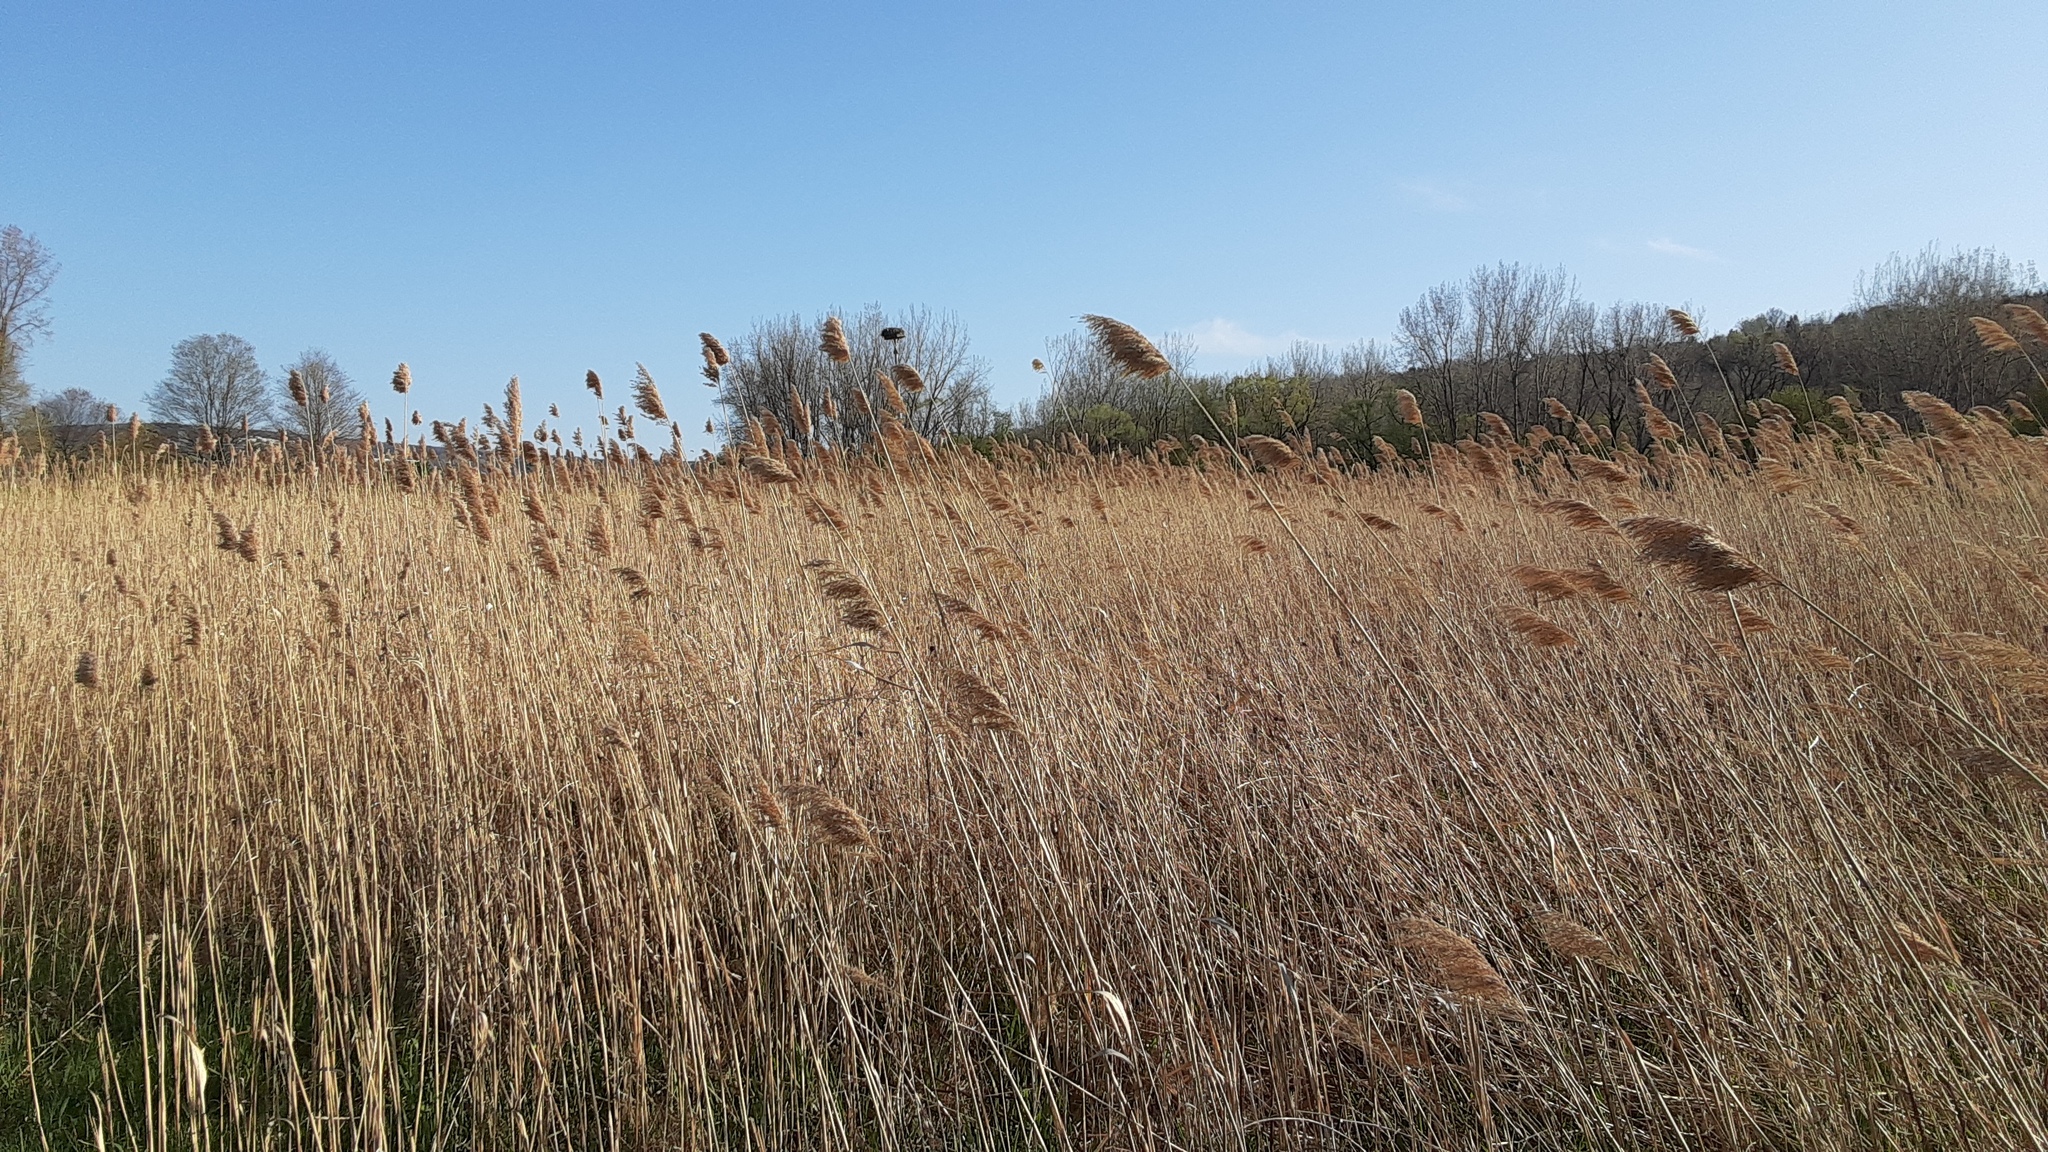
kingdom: Plantae
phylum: Tracheophyta
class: Liliopsida
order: Poales
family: Poaceae
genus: Phragmites
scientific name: Phragmites australis
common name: Common reed
